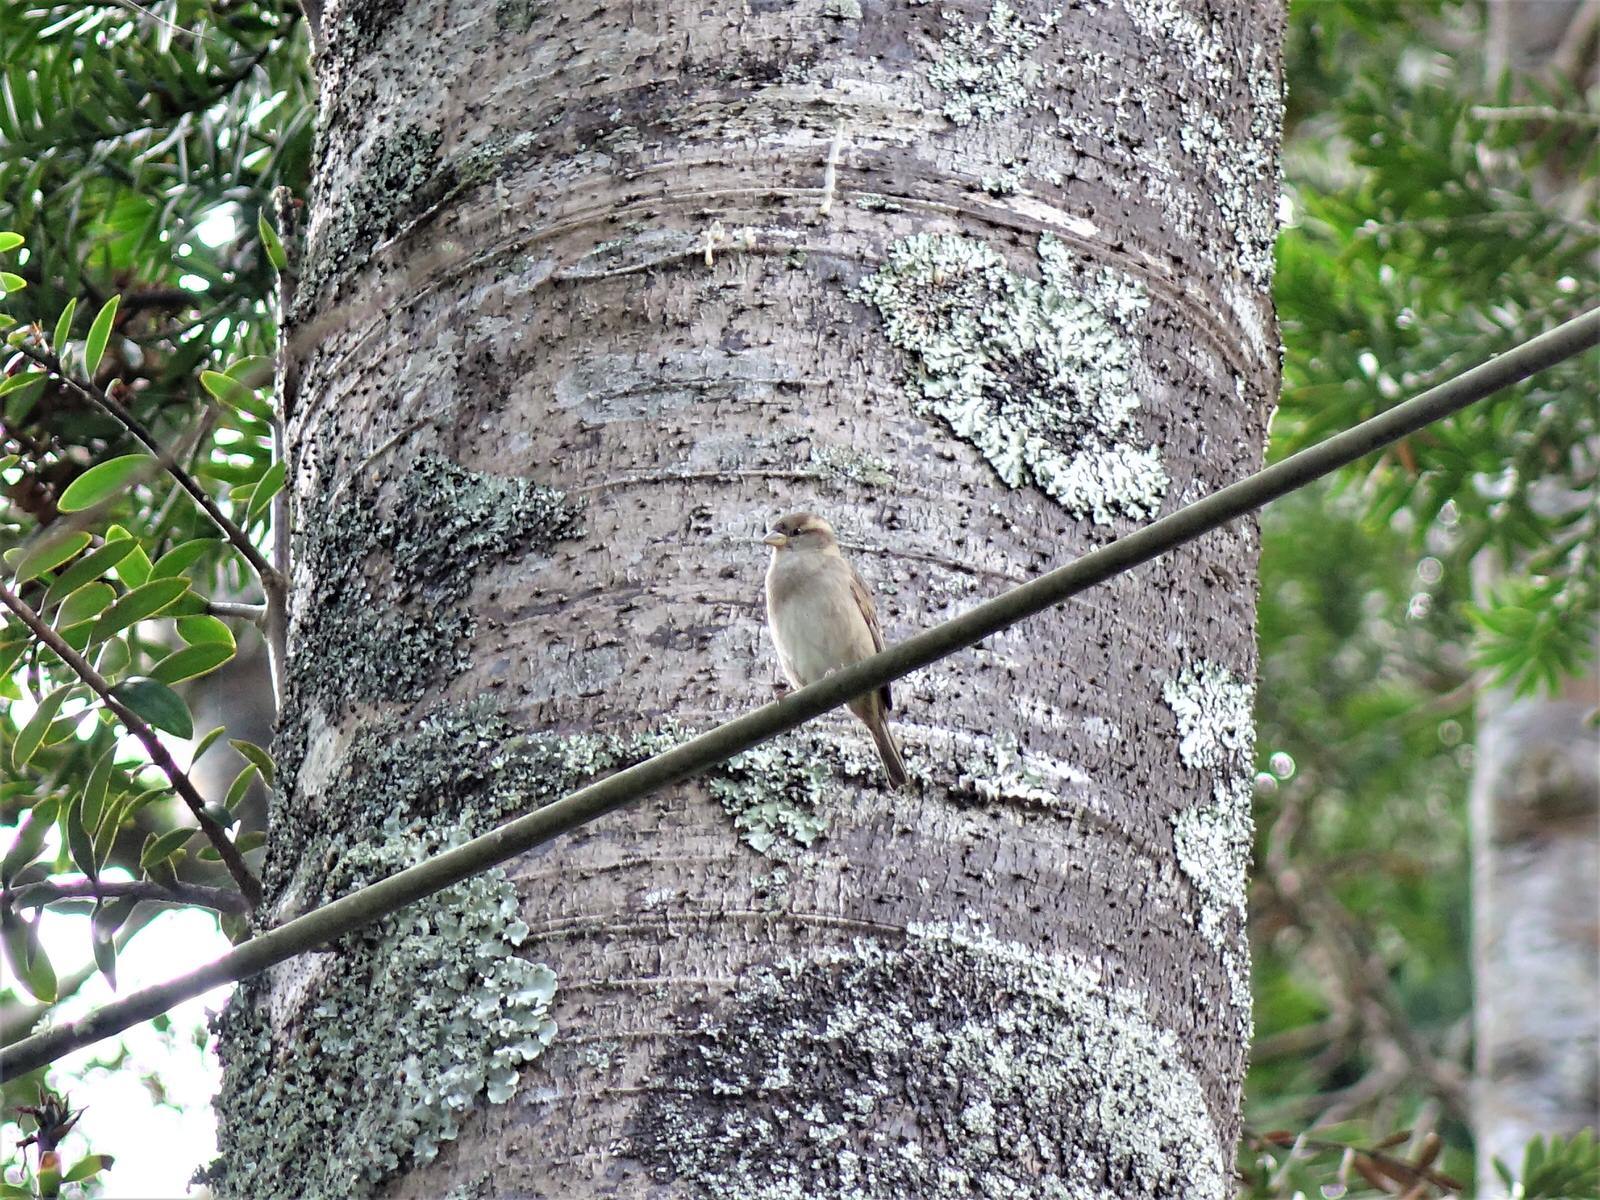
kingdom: Animalia
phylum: Chordata
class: Aves
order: Passeriformes
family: Passeridae
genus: Passer
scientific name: Passer domesticus
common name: House sparrow
